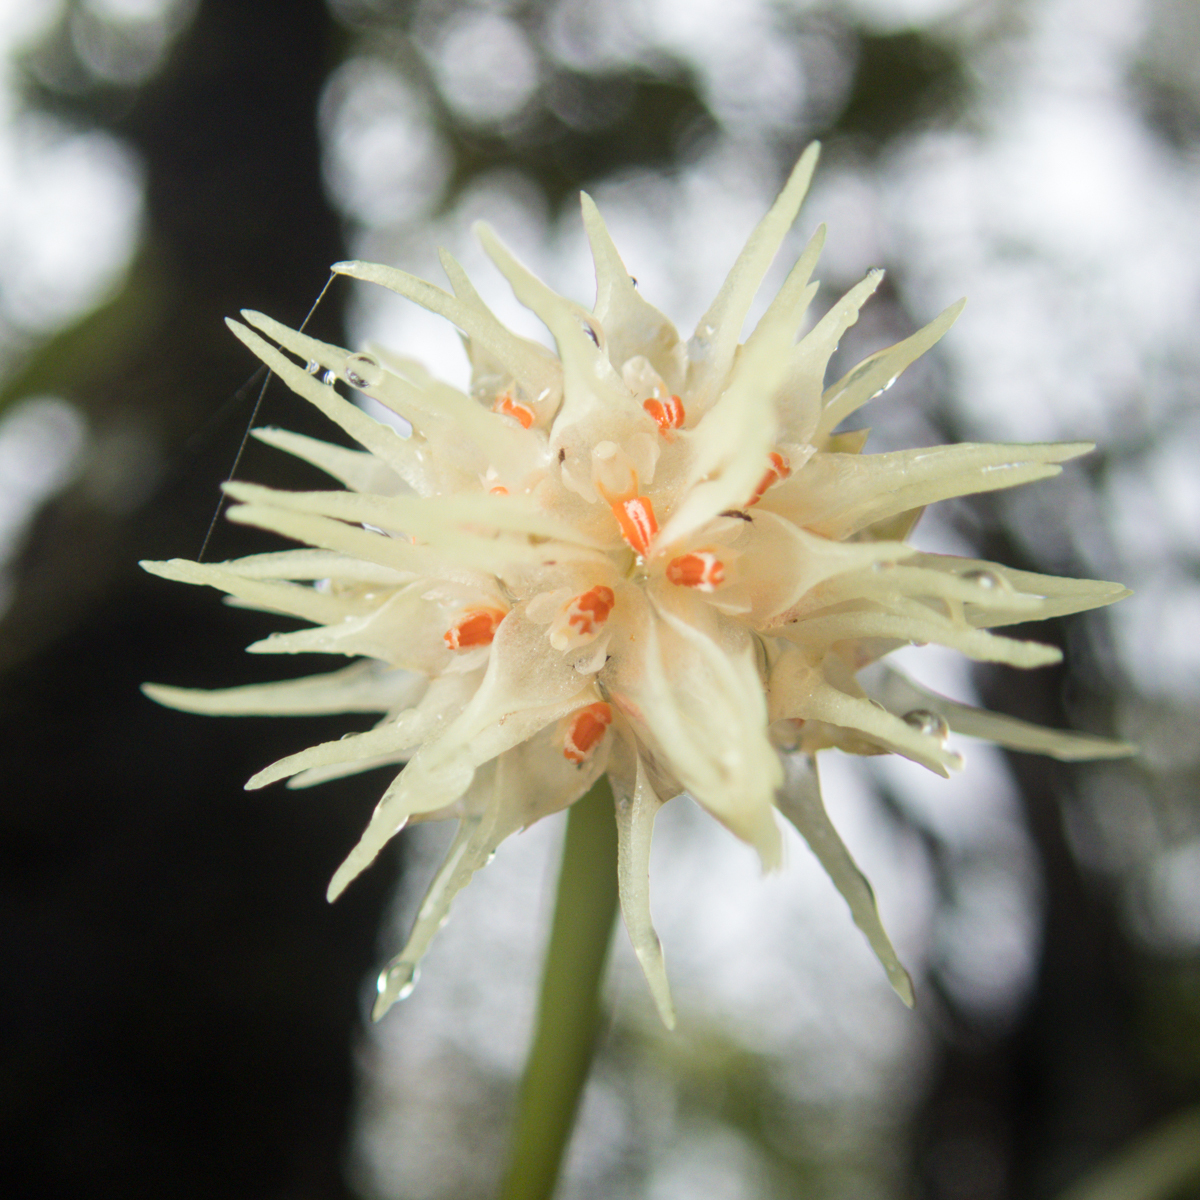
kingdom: Plantae
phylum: Tracheophyta
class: Liliopsida
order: Asparagales
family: Orchidaceae
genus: Bulbophyllum
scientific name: Bulbophyllum odoratissimum
